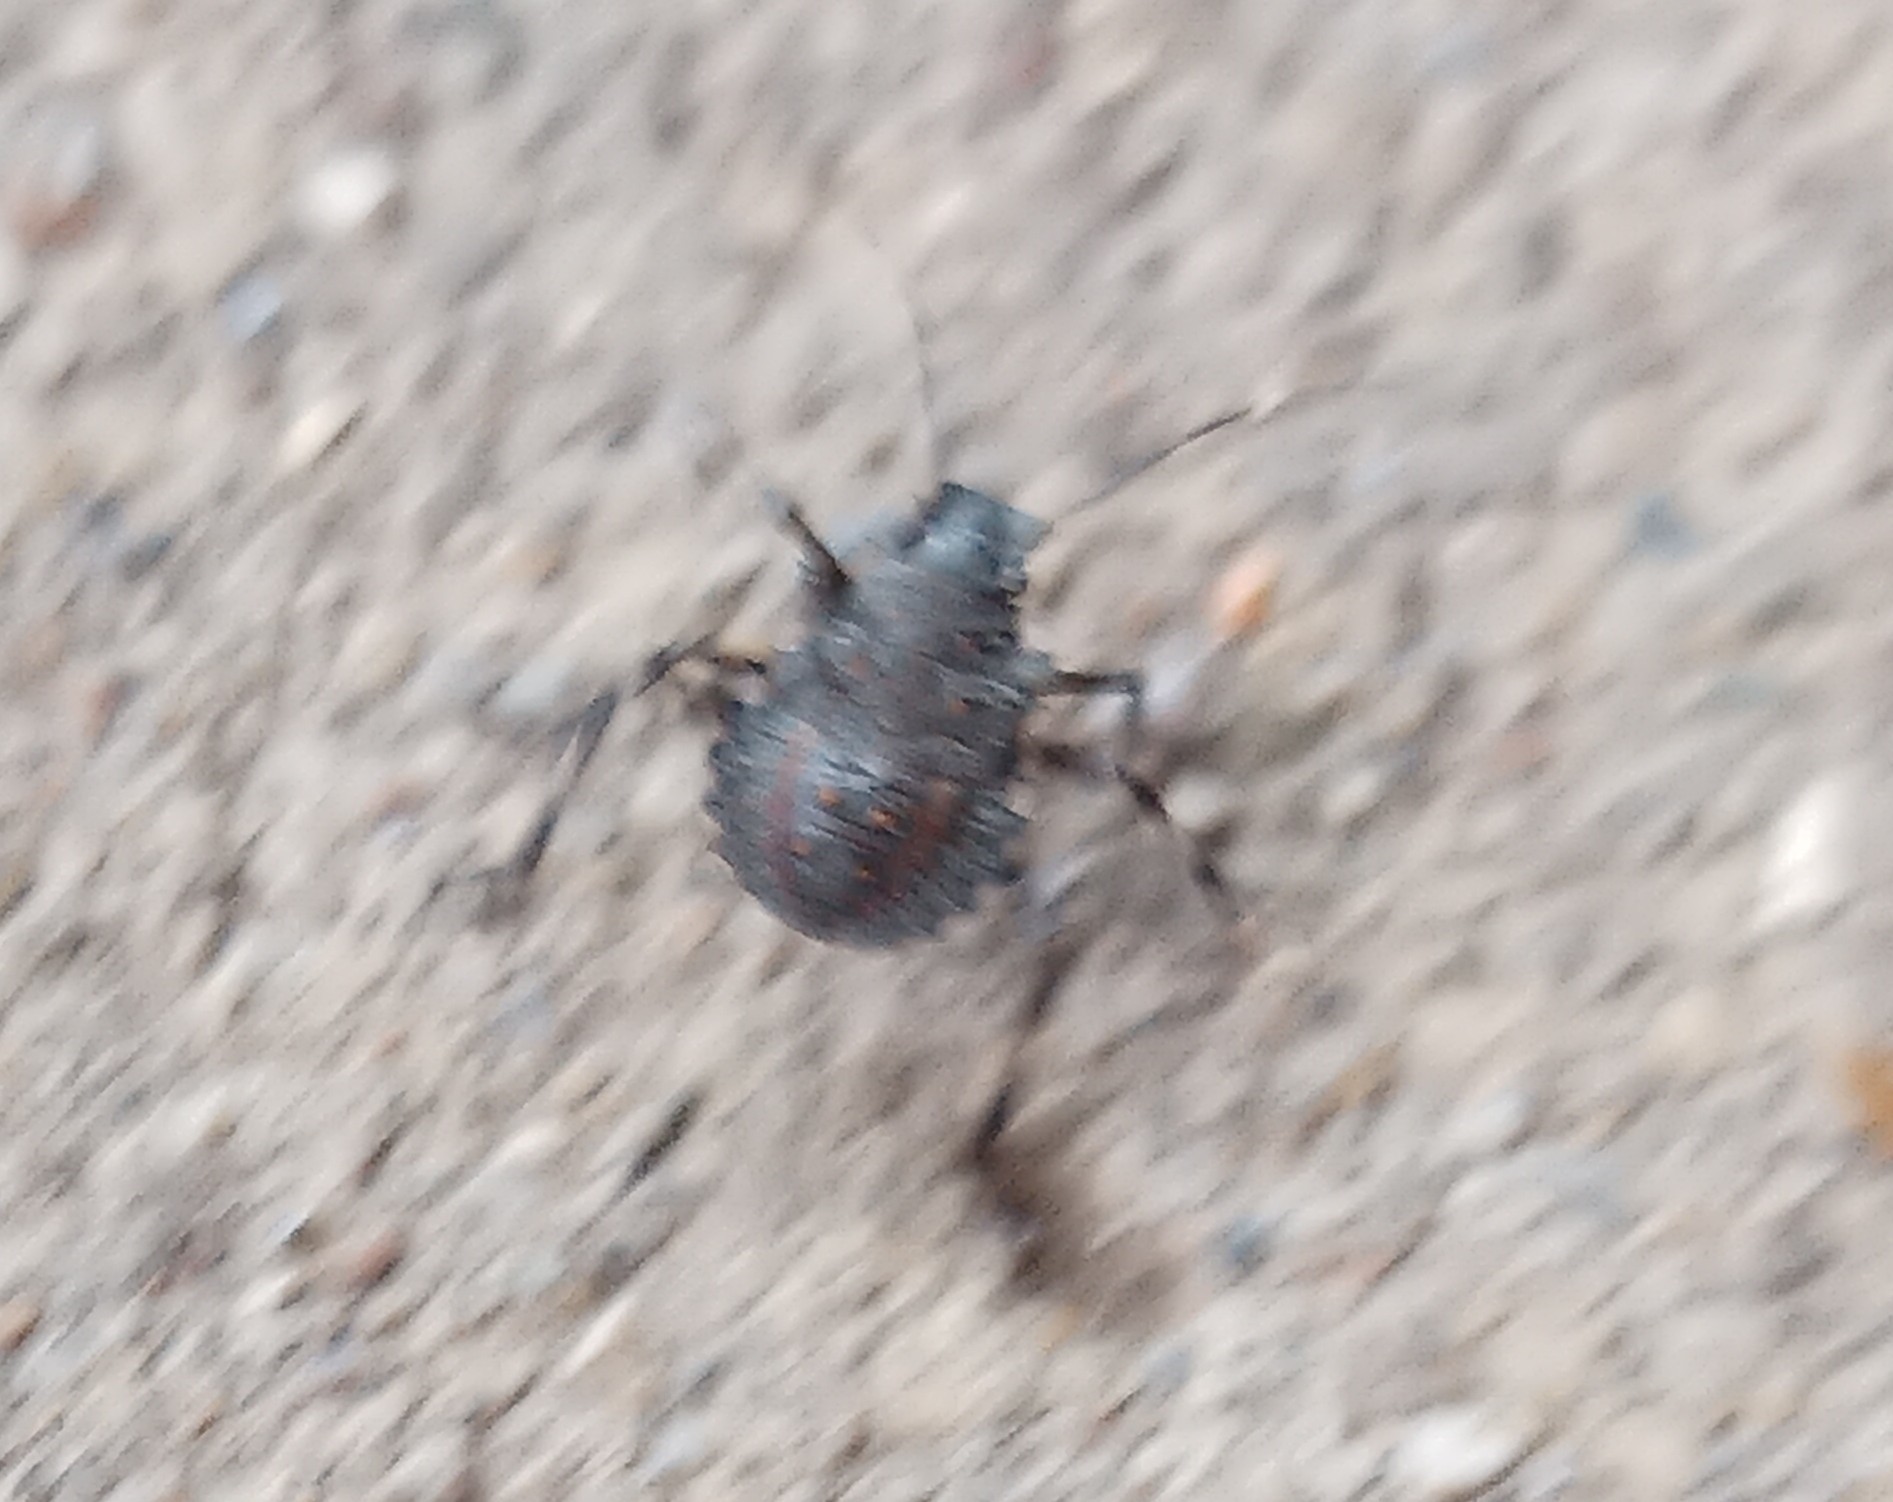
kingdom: Animalia
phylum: Arthropoda
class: Insecta
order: Hemiptera
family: Pentatomidae
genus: Halyomorpha
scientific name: Halyomorpha halys
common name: Brown marmorated stink bug
